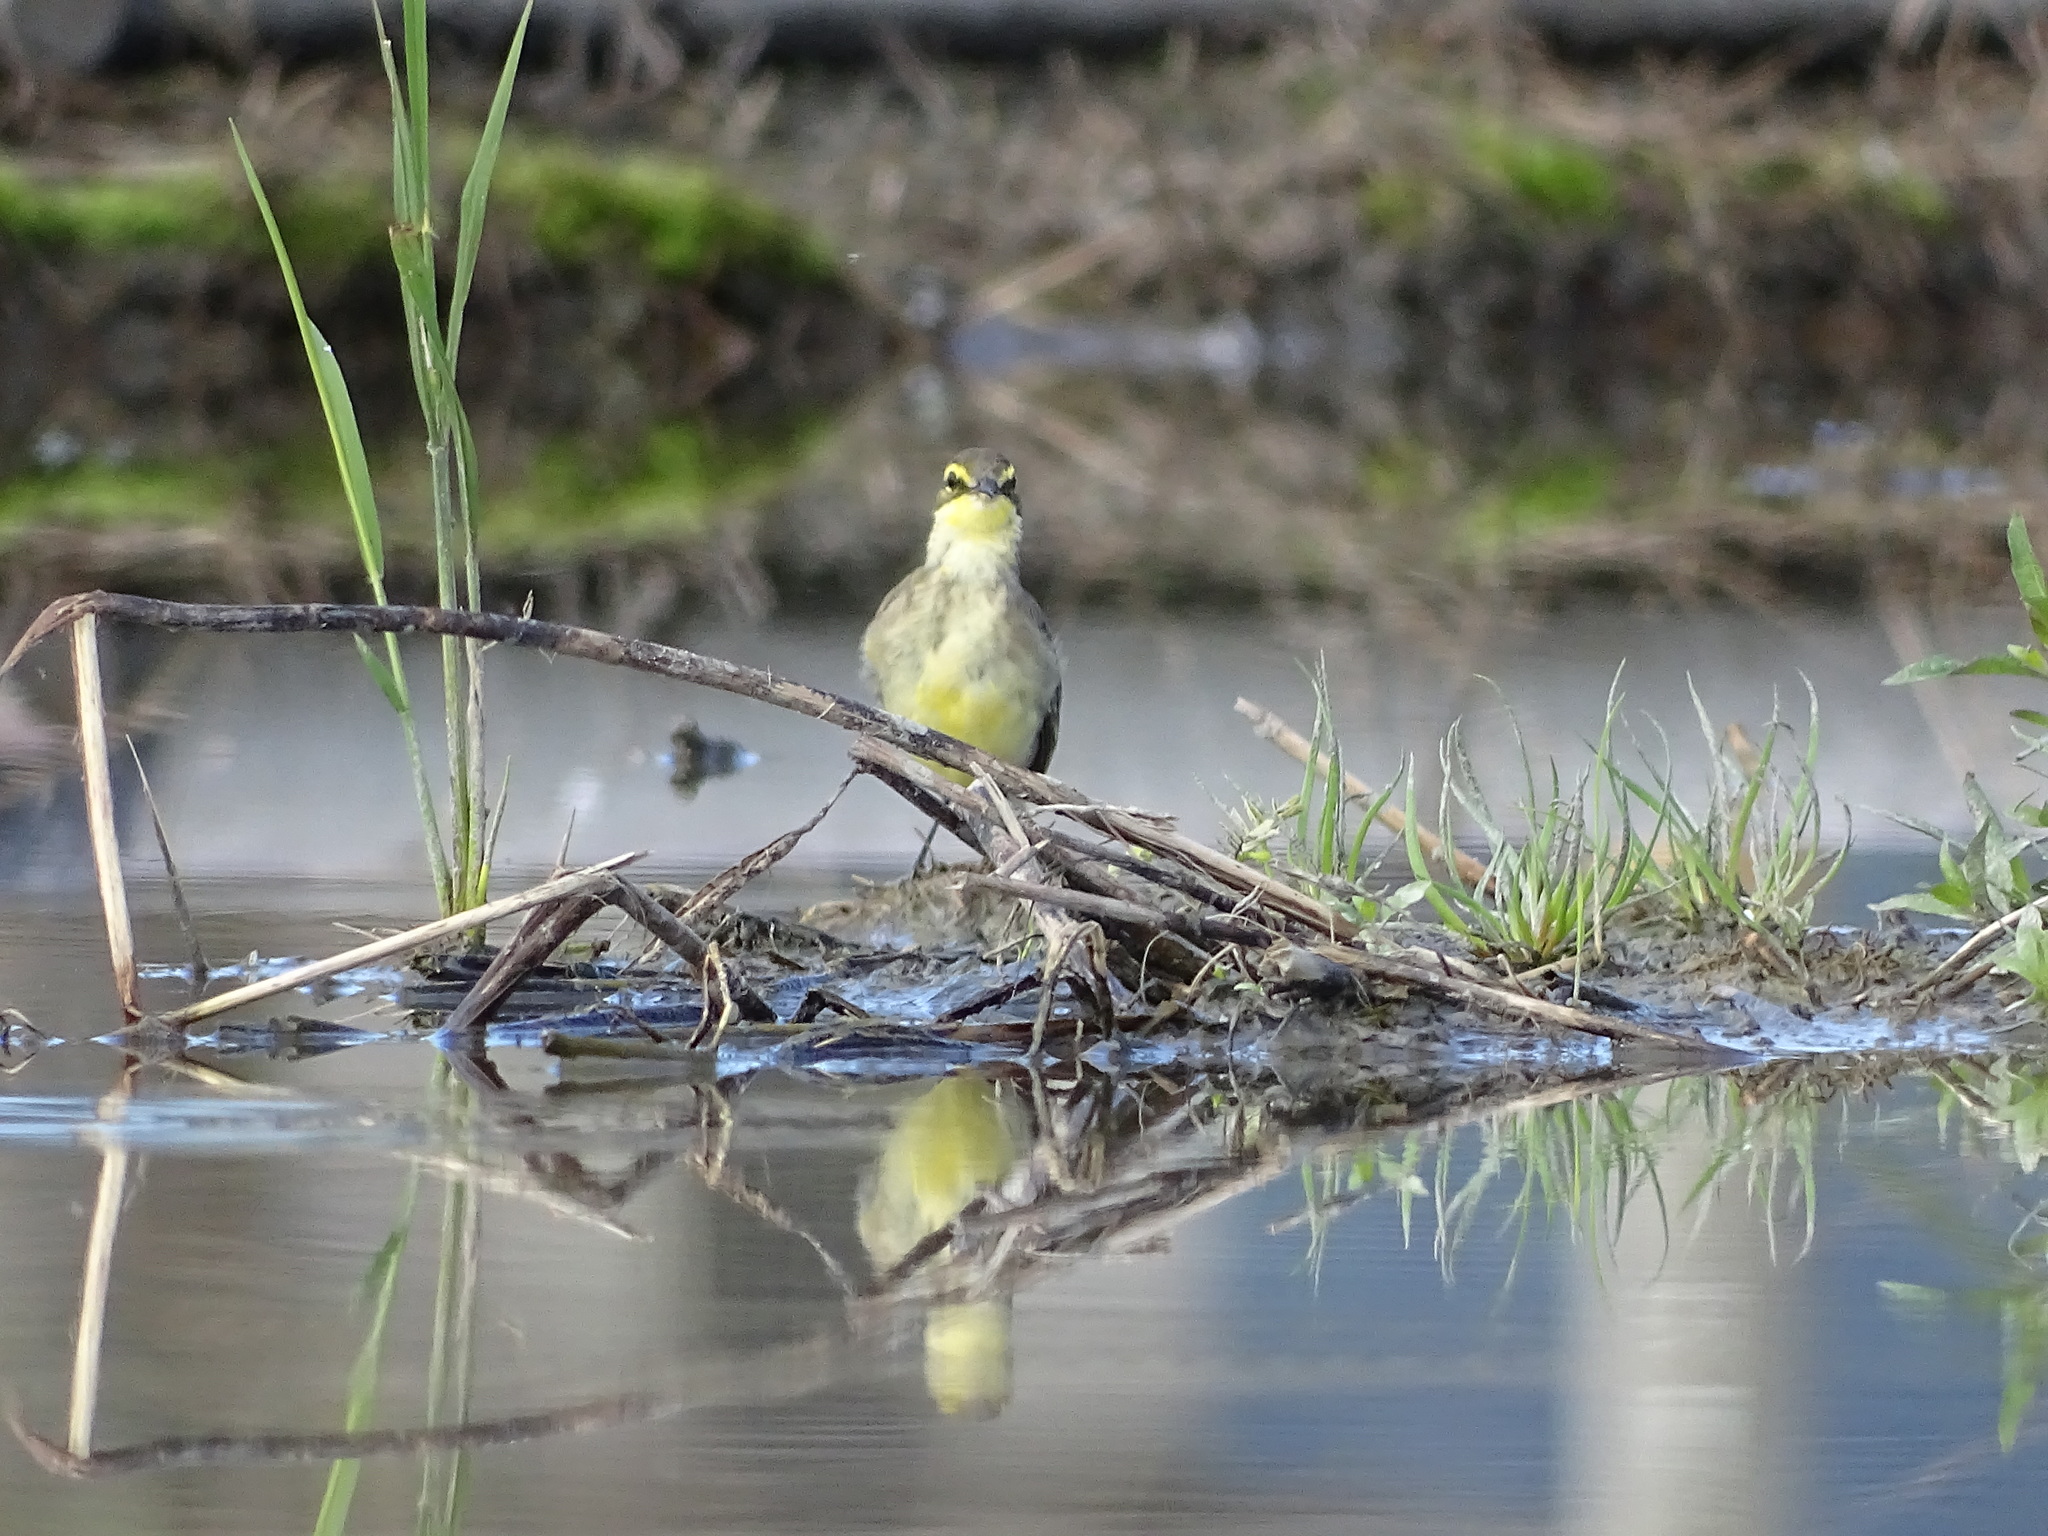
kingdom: Animalia
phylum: Chordata
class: Aves
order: Passeriformes
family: Motacillidae
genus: Motacilla
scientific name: Motacilla tschutschensis
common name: Eastern yellow wagtail
